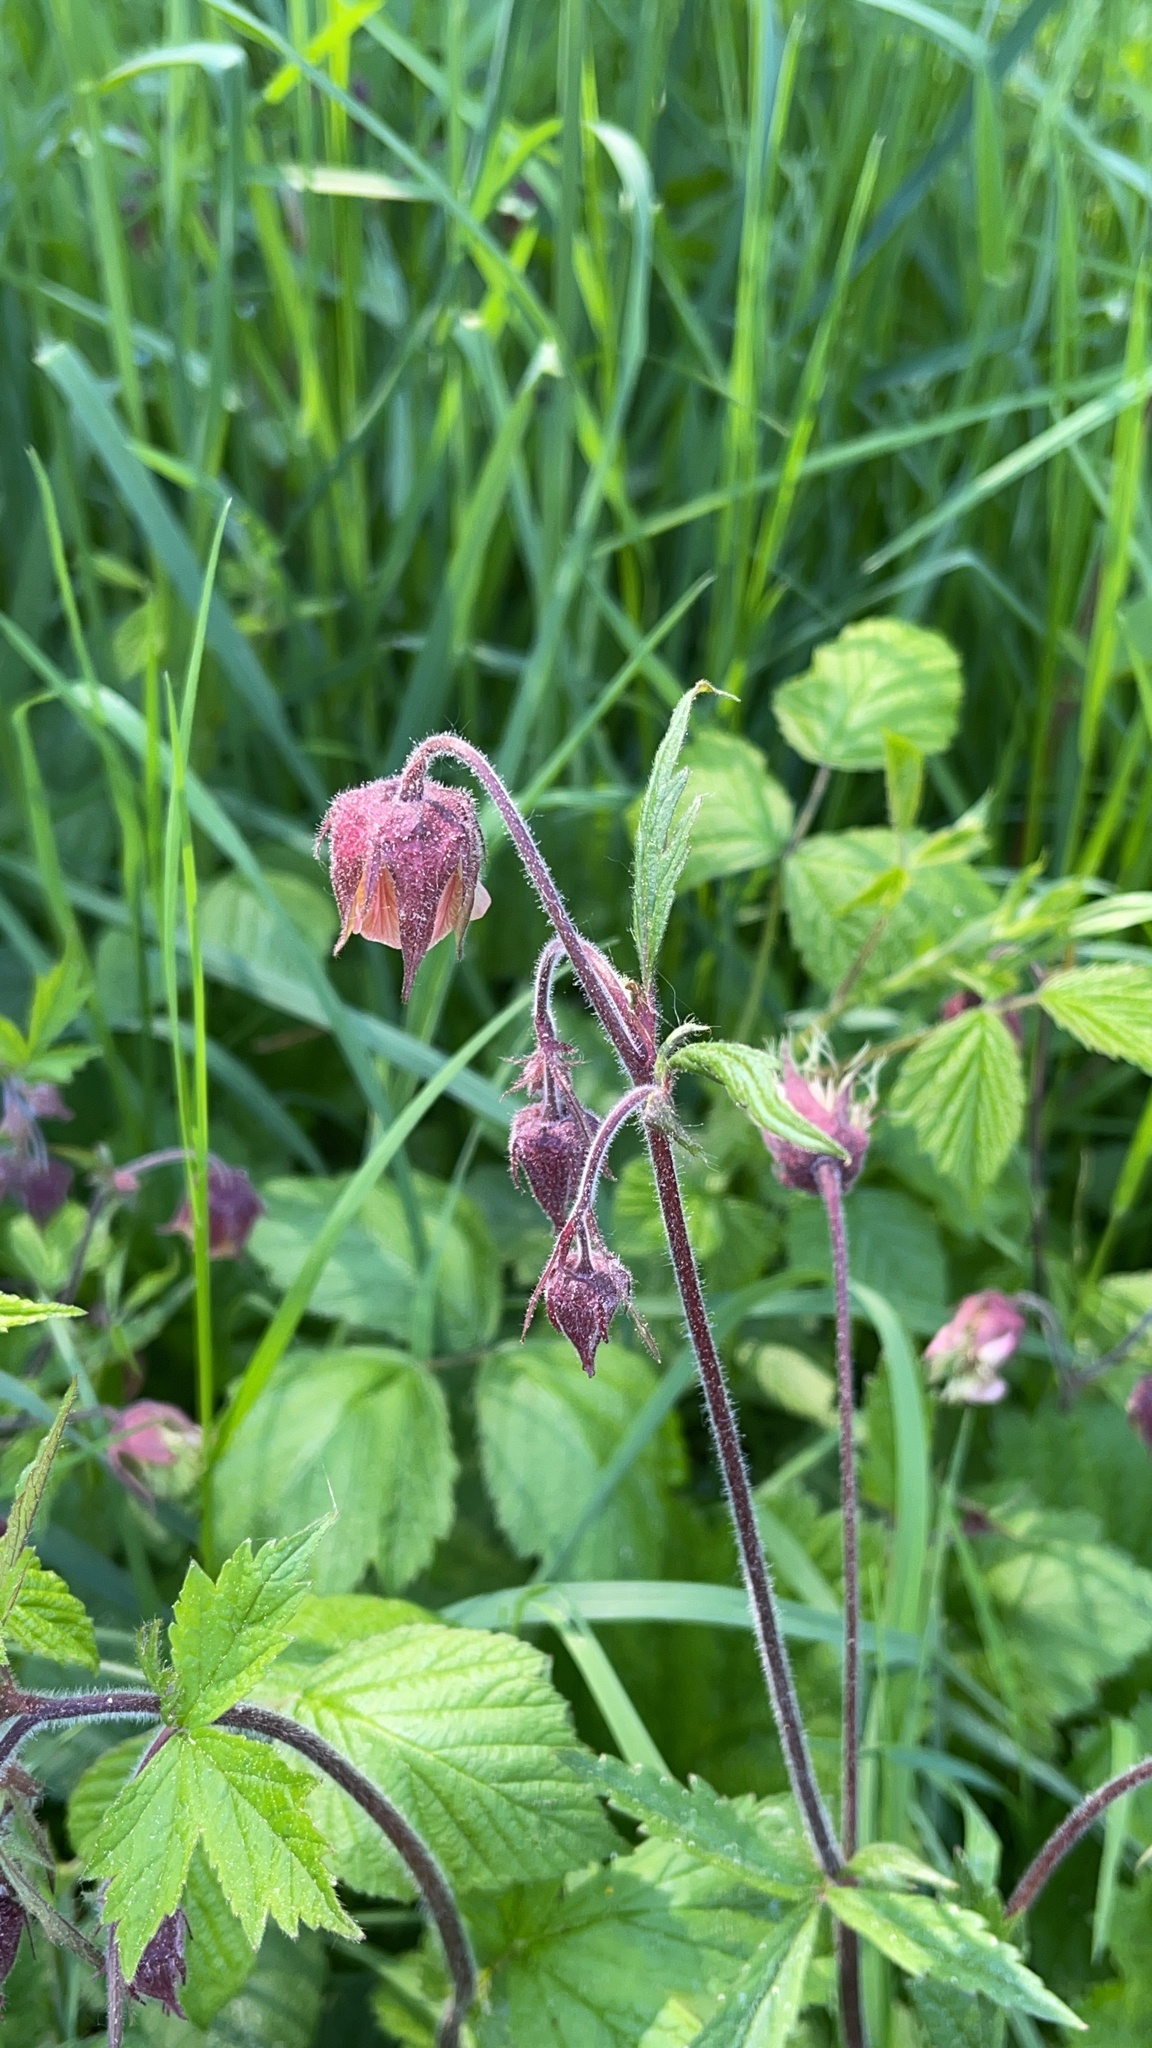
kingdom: Plantae
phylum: Tracheophyta
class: Magnoliopsida
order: Rosales
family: Rosaceae
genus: Geum
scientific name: Geum rivale
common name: Water avens
